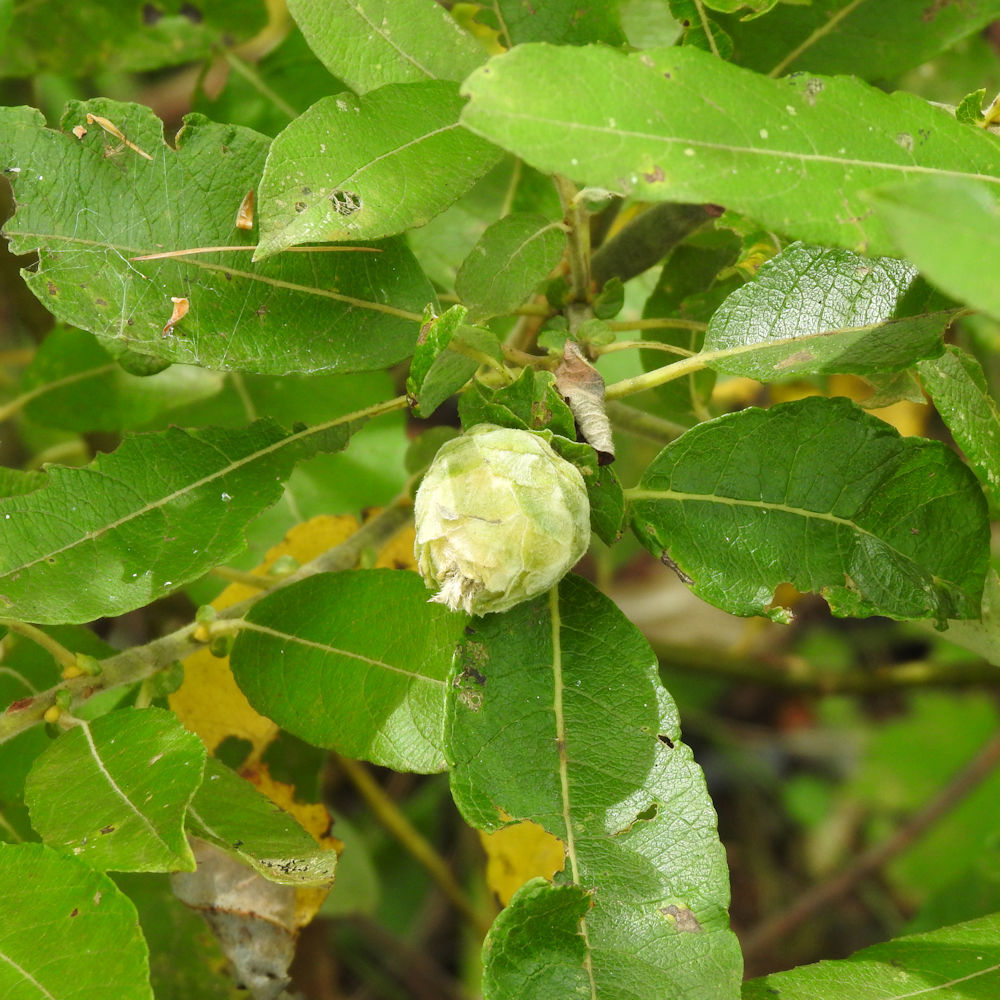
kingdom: Animalia
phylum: Arthropoda
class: Insecta
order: Diptera
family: Cecidomyiidae
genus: Rabdophaga
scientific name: Rabdophaga strobiloides
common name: Willow pinecone gall midge
